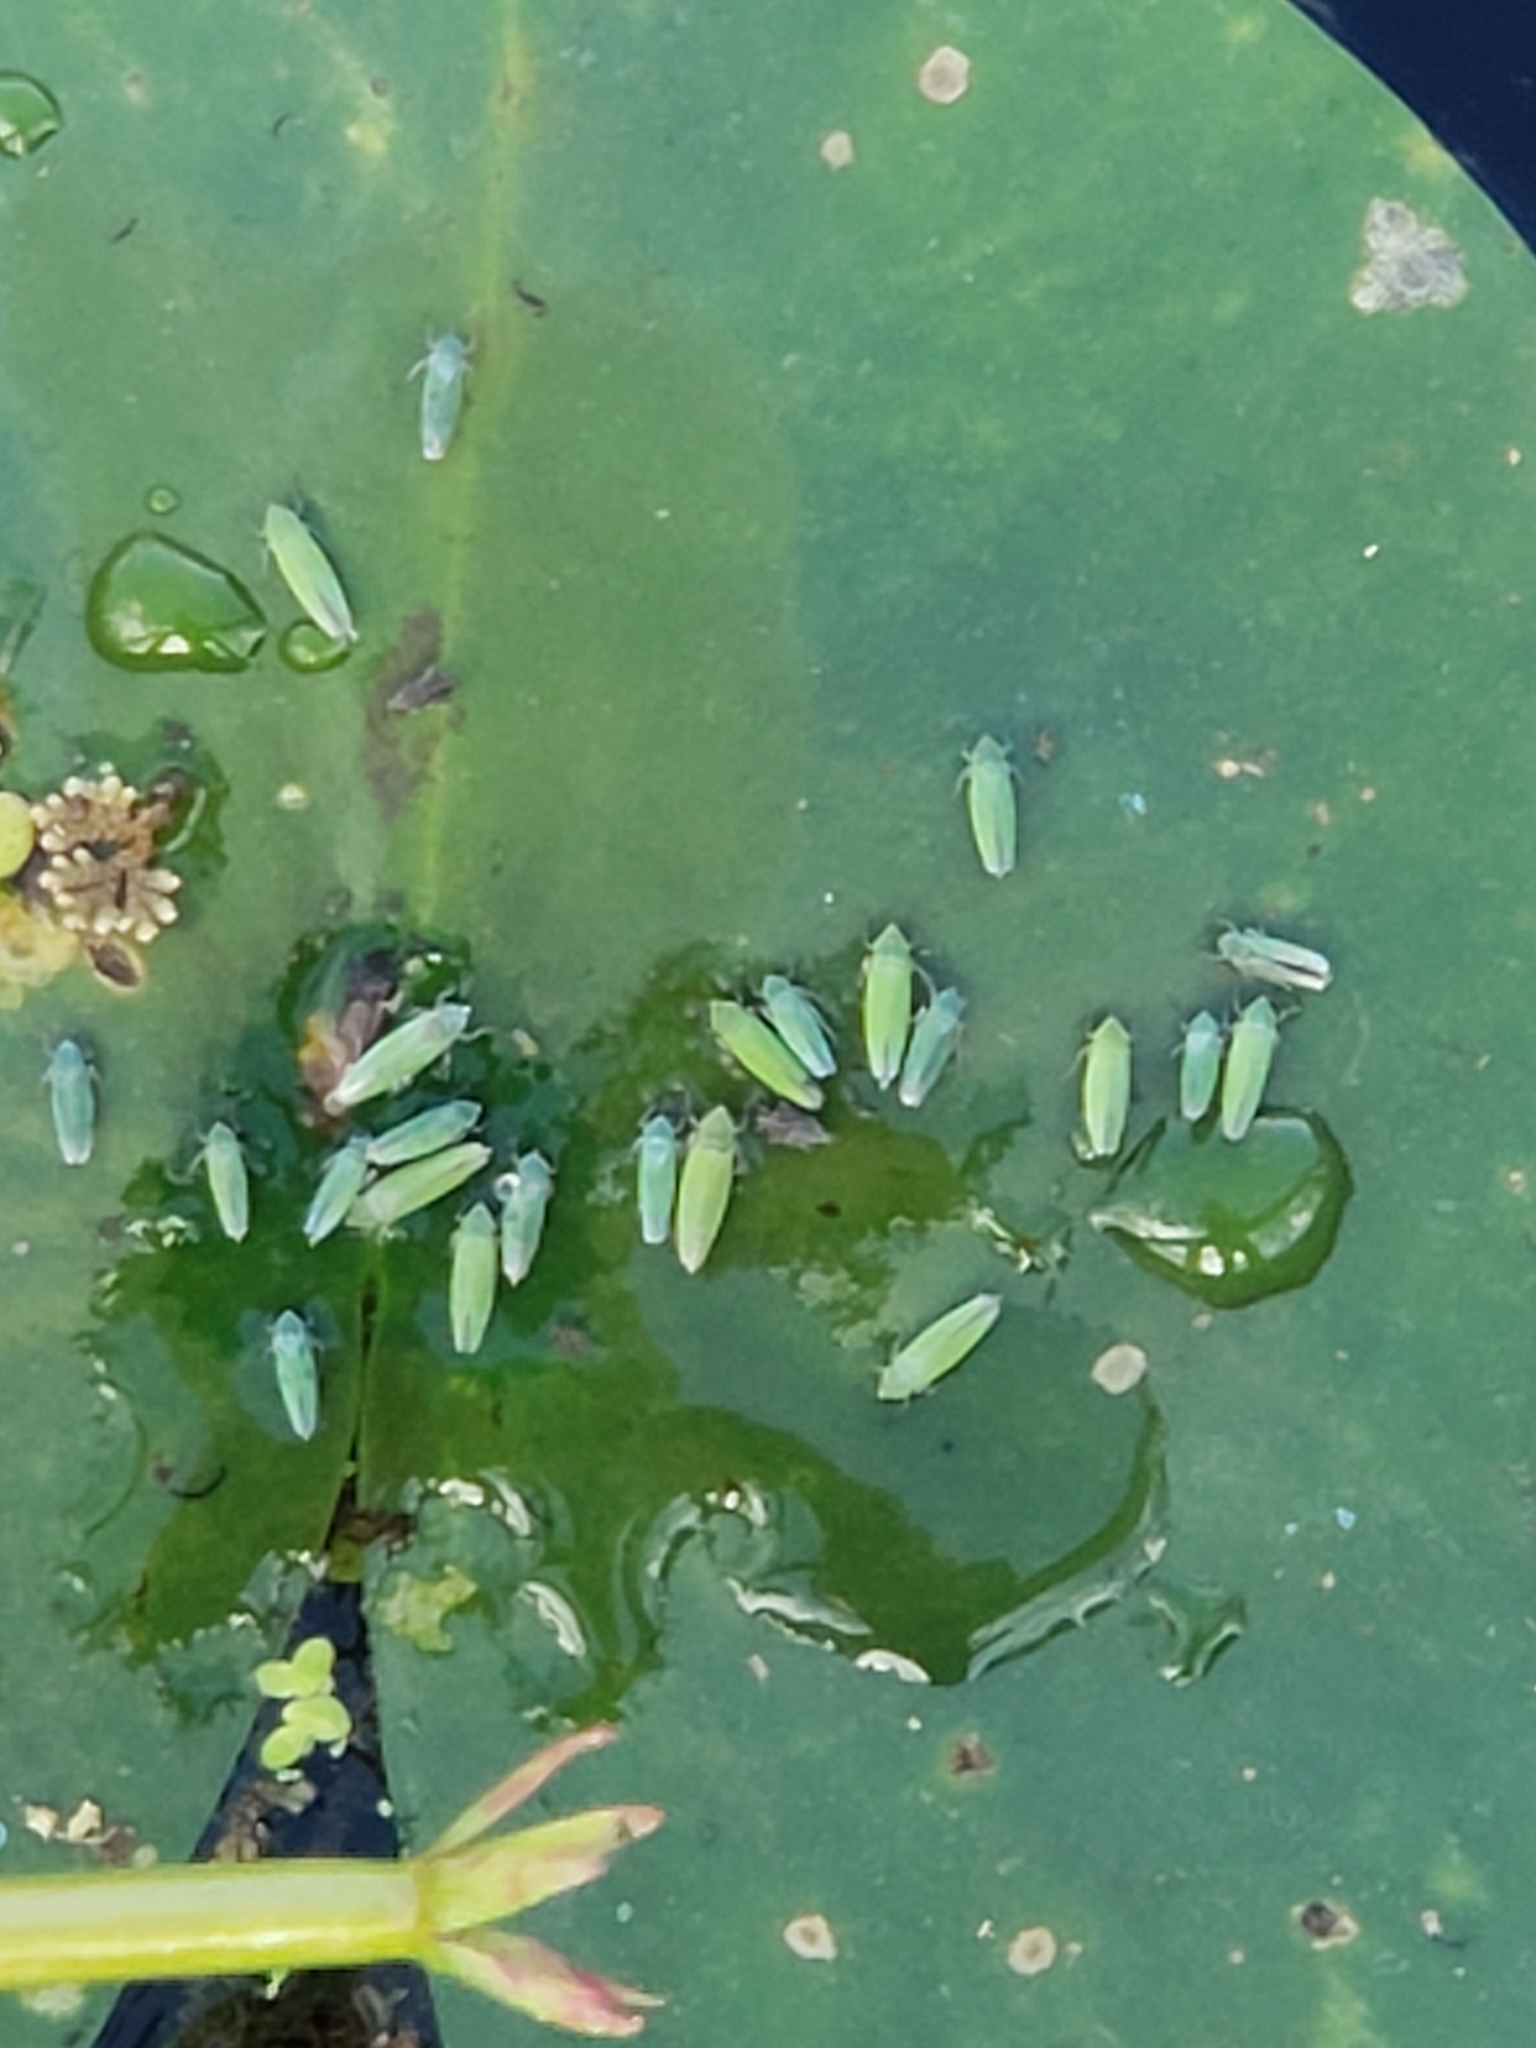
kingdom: Animalia
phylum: Arthropoda
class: Insecta
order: Hemiptera
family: Cicadellidae
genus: Draeculacephala
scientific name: Draeculacephala inscripta
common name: Leafhopper
